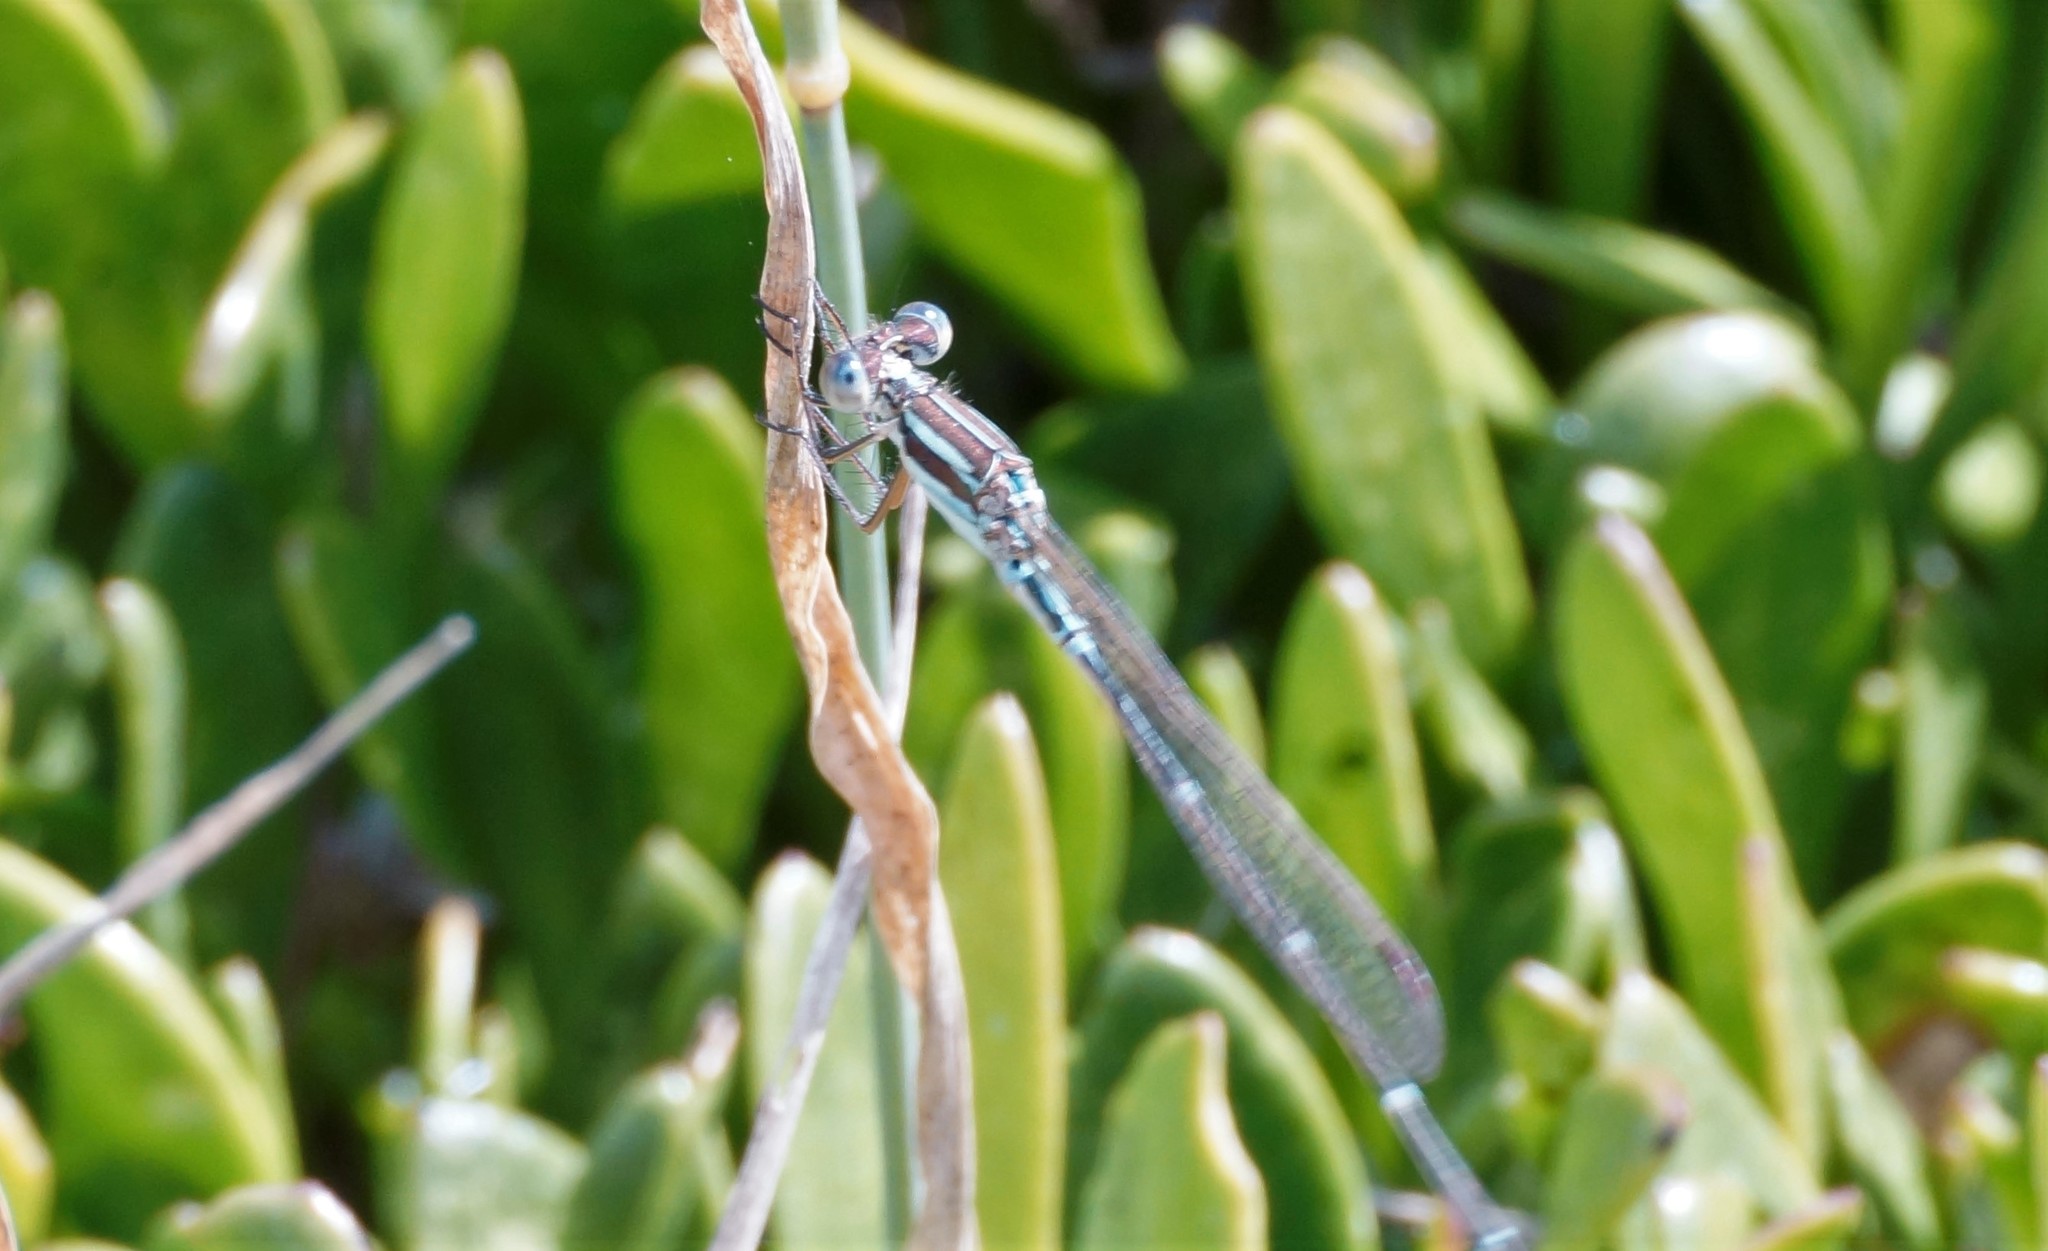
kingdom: Animalia
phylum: Arthropoda
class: Insecta
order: Odonata
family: Lestidae
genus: Austrolestes
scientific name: Austrolestes analis
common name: Slender ringtail
